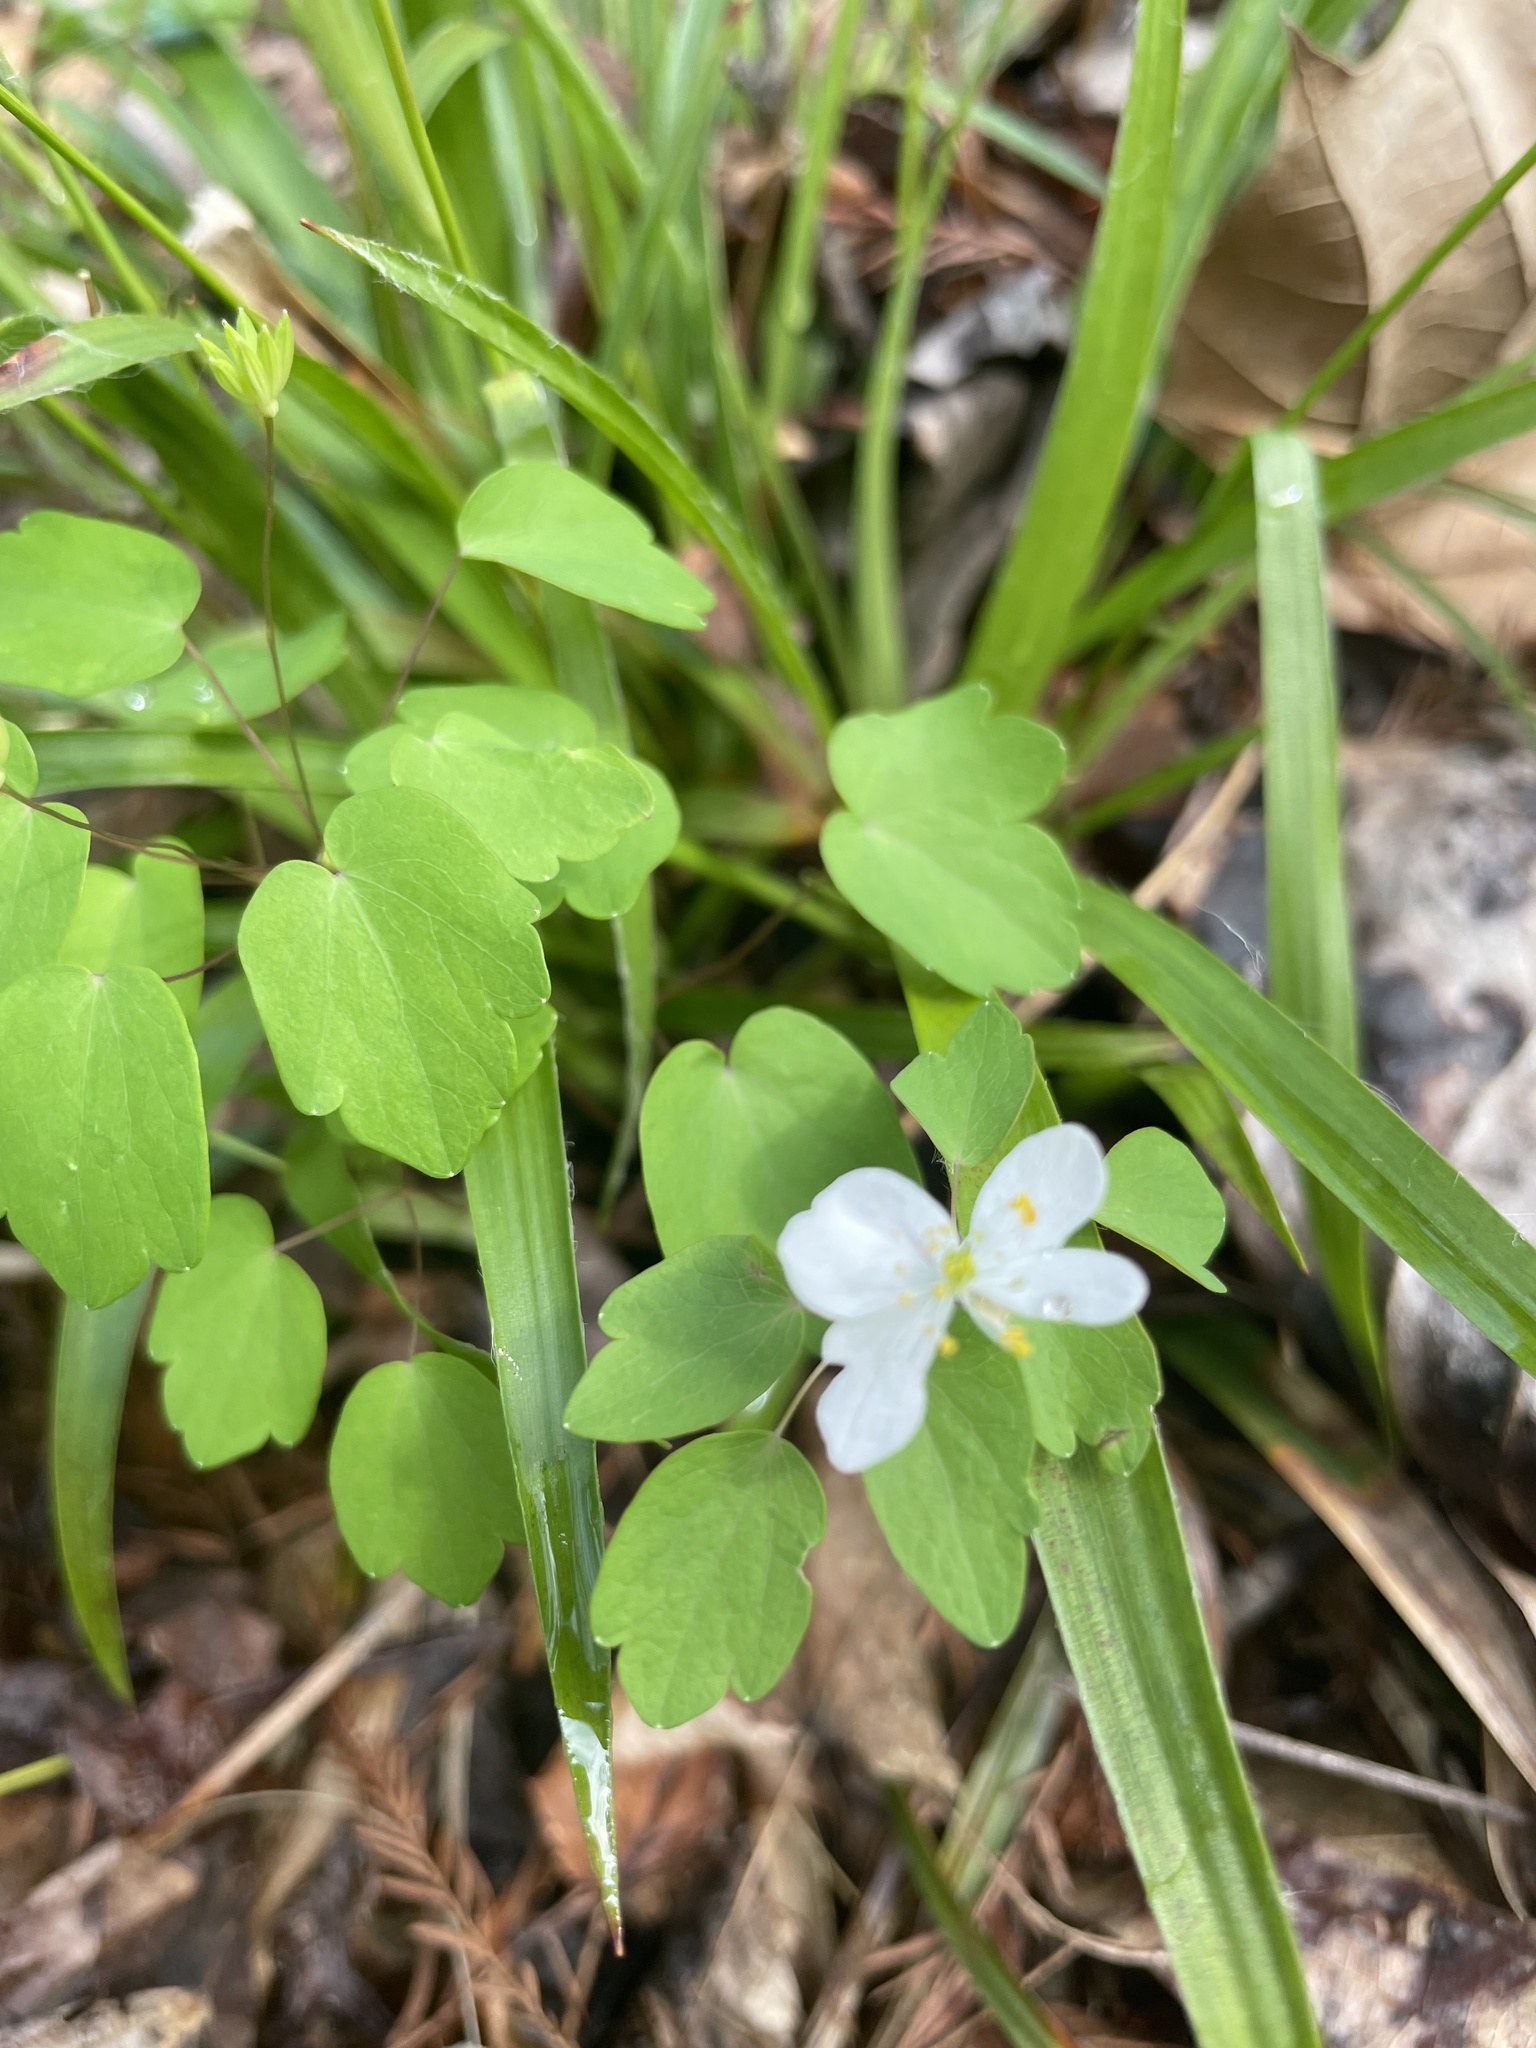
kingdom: Plantae
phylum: Tracheophyta
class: Magnoliopsida
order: Ranunculales
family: Ranunculaceae
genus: Thalictrum
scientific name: Thalictrum thalictroides
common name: Rue-anemone
